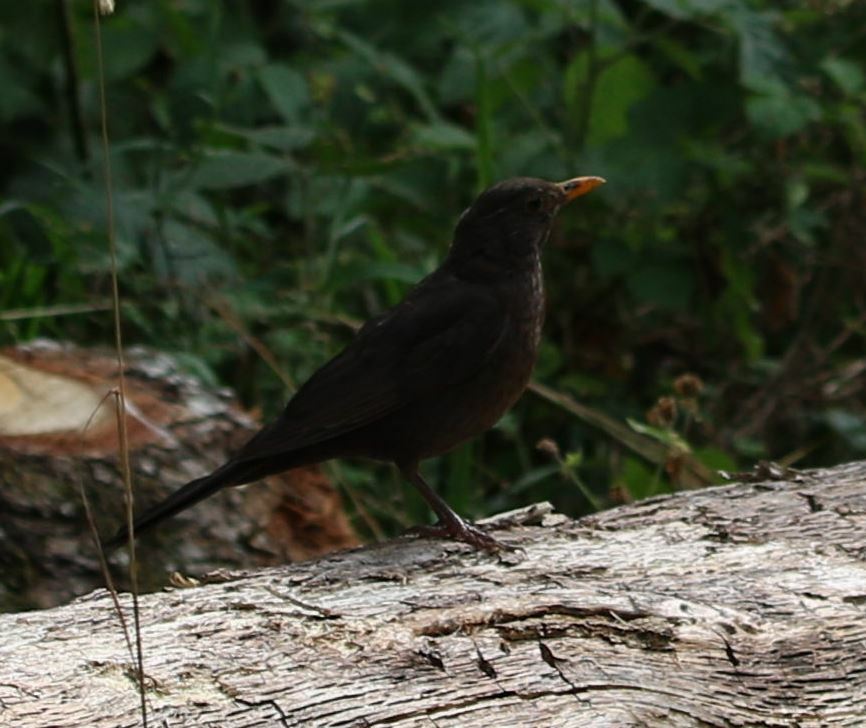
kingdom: Animalia
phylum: Chordata
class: Aves
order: Passeriformes
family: Turdidae
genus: Turdus
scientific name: Turdus merula
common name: Common blackbird
